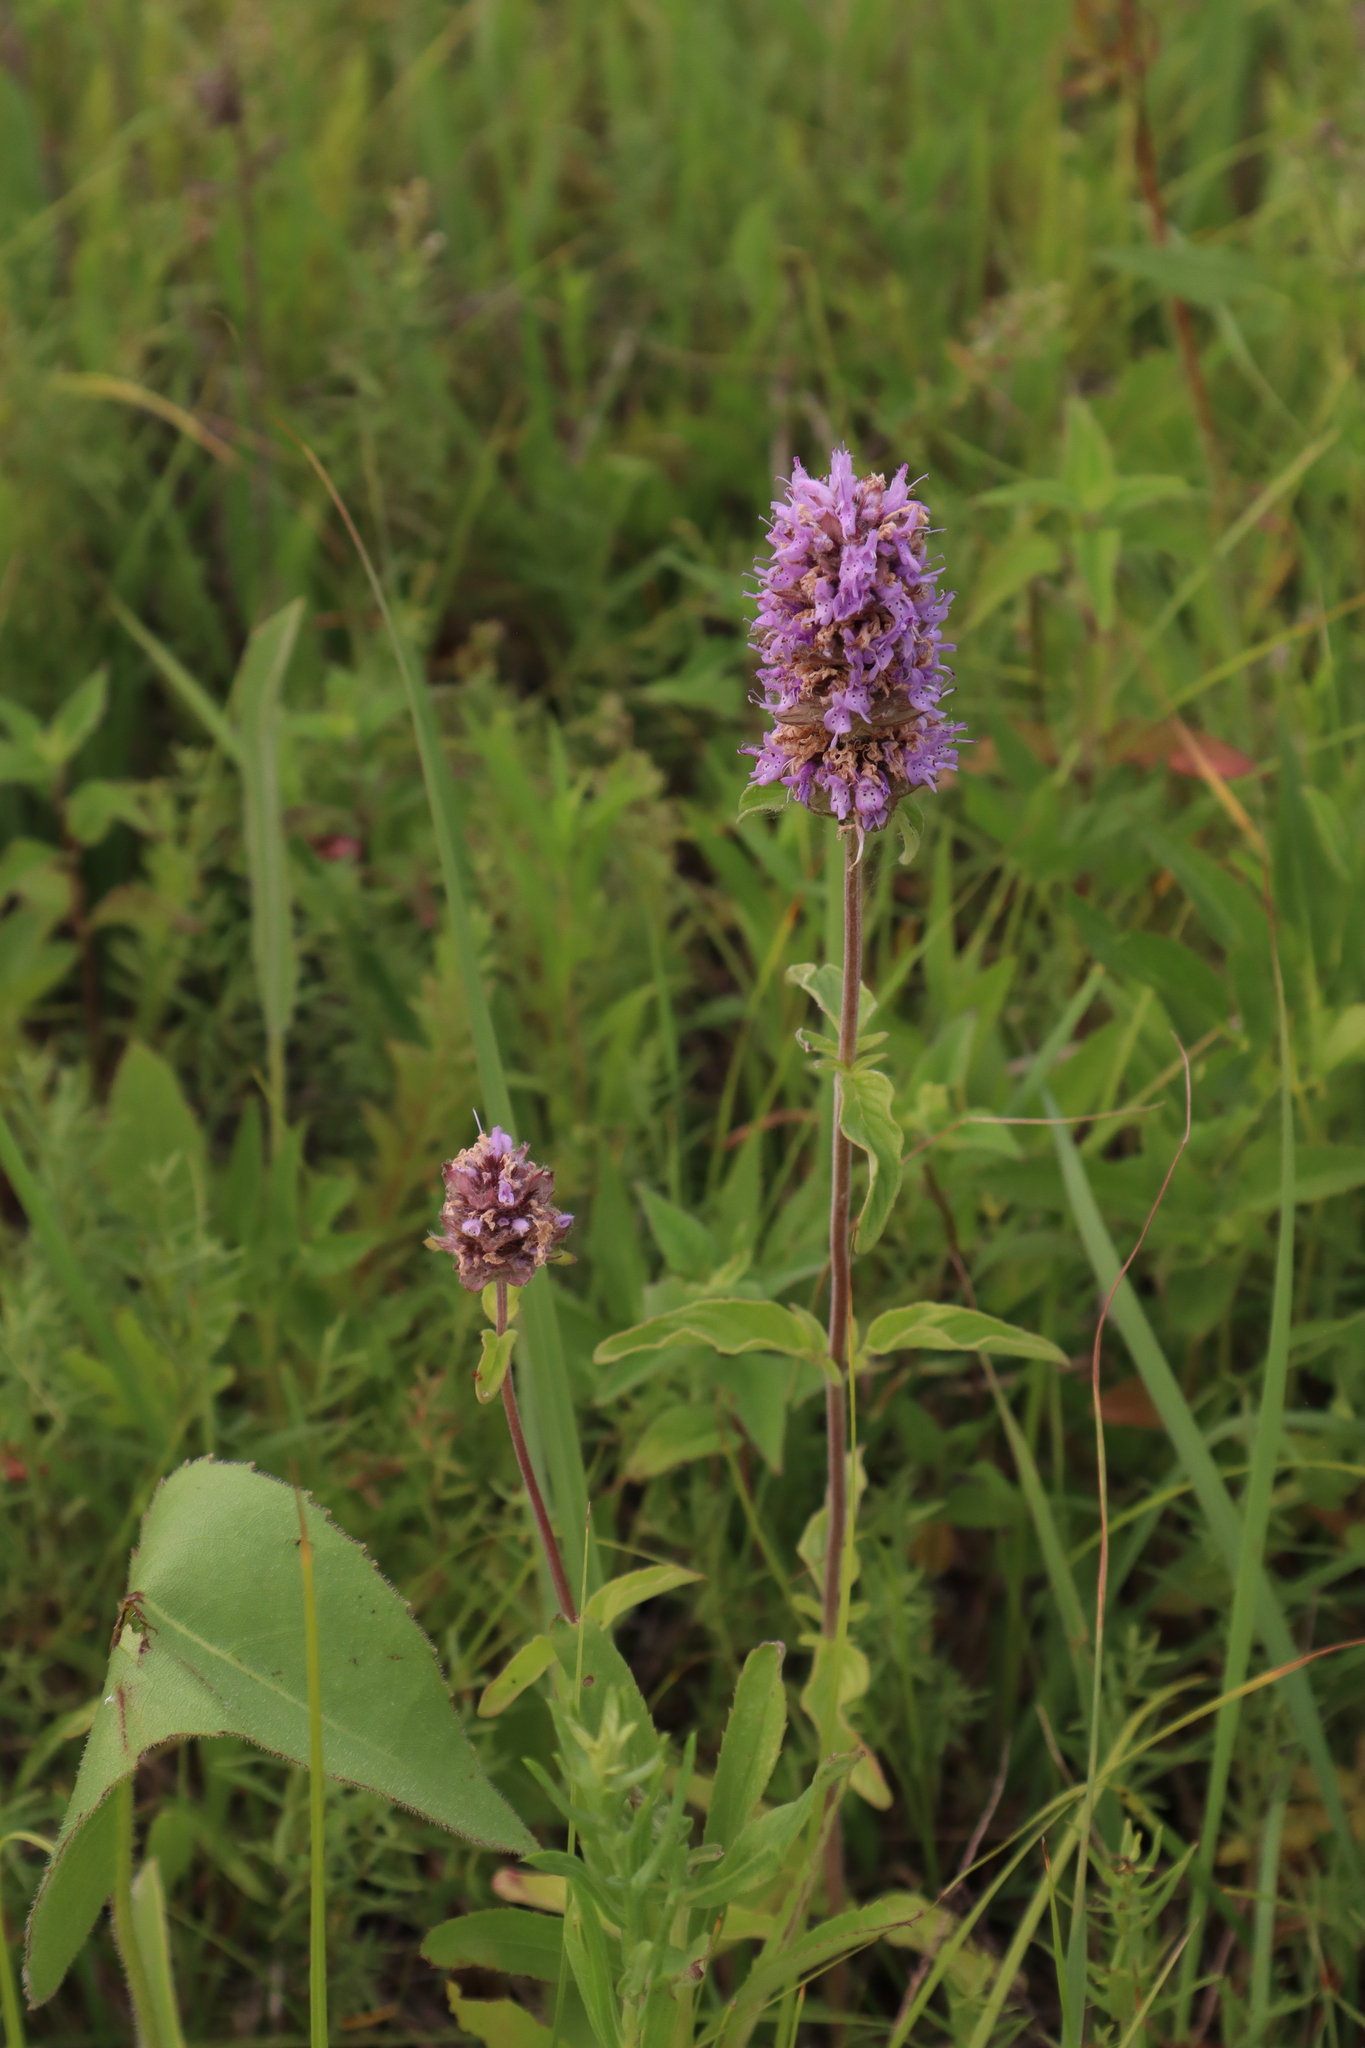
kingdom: Plantae
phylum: Tracheophyta
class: Magnoliopsida
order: Lamiales
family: Lamiaceae
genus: Blephilia
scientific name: Blephilia ciliata
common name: Downy blephilia
